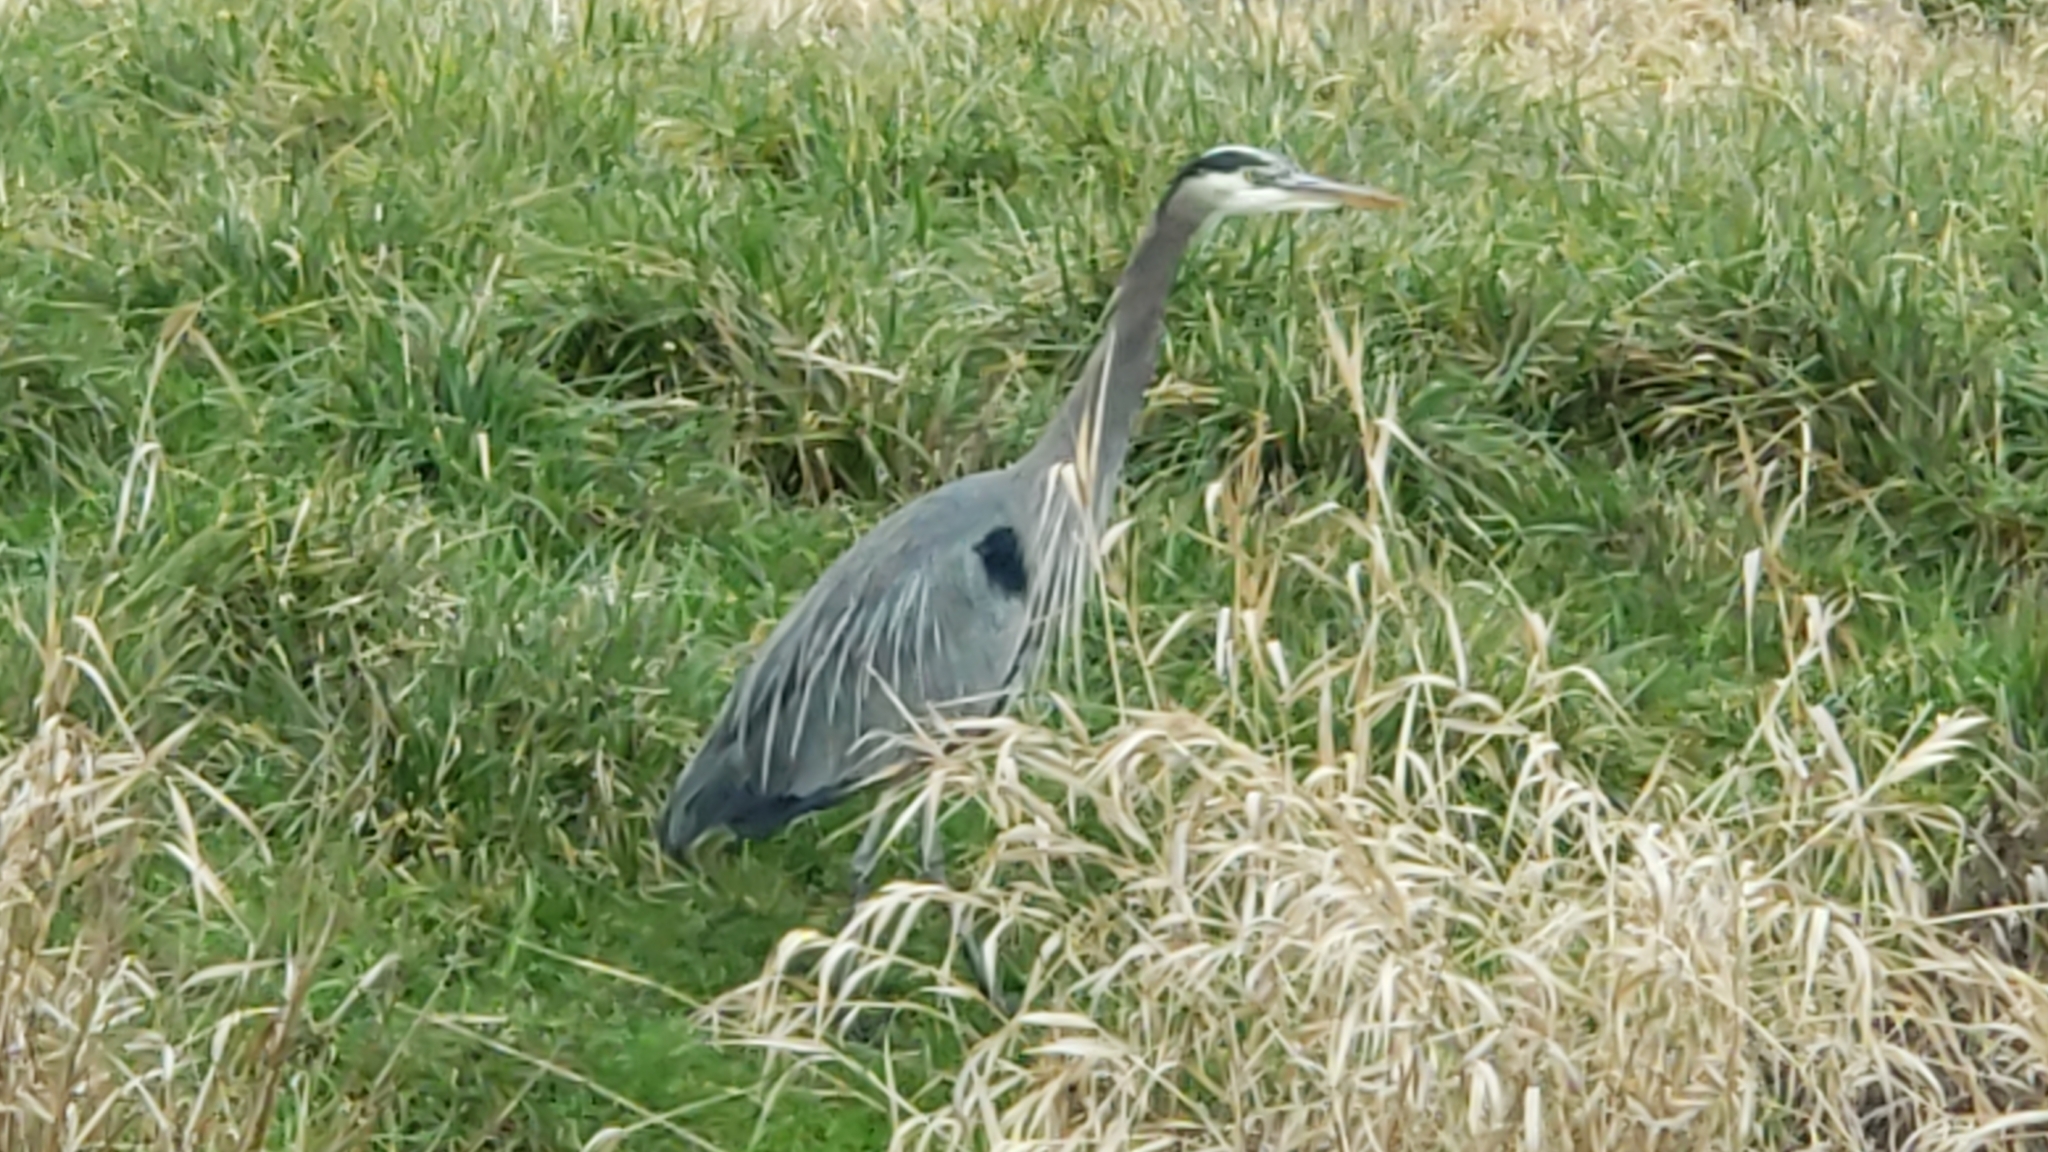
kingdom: Animalia
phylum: Chordata
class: Aves
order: Pelecaniformes
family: Ardeidae
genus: Ardea
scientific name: Ardea herodias
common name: Great blue heron
